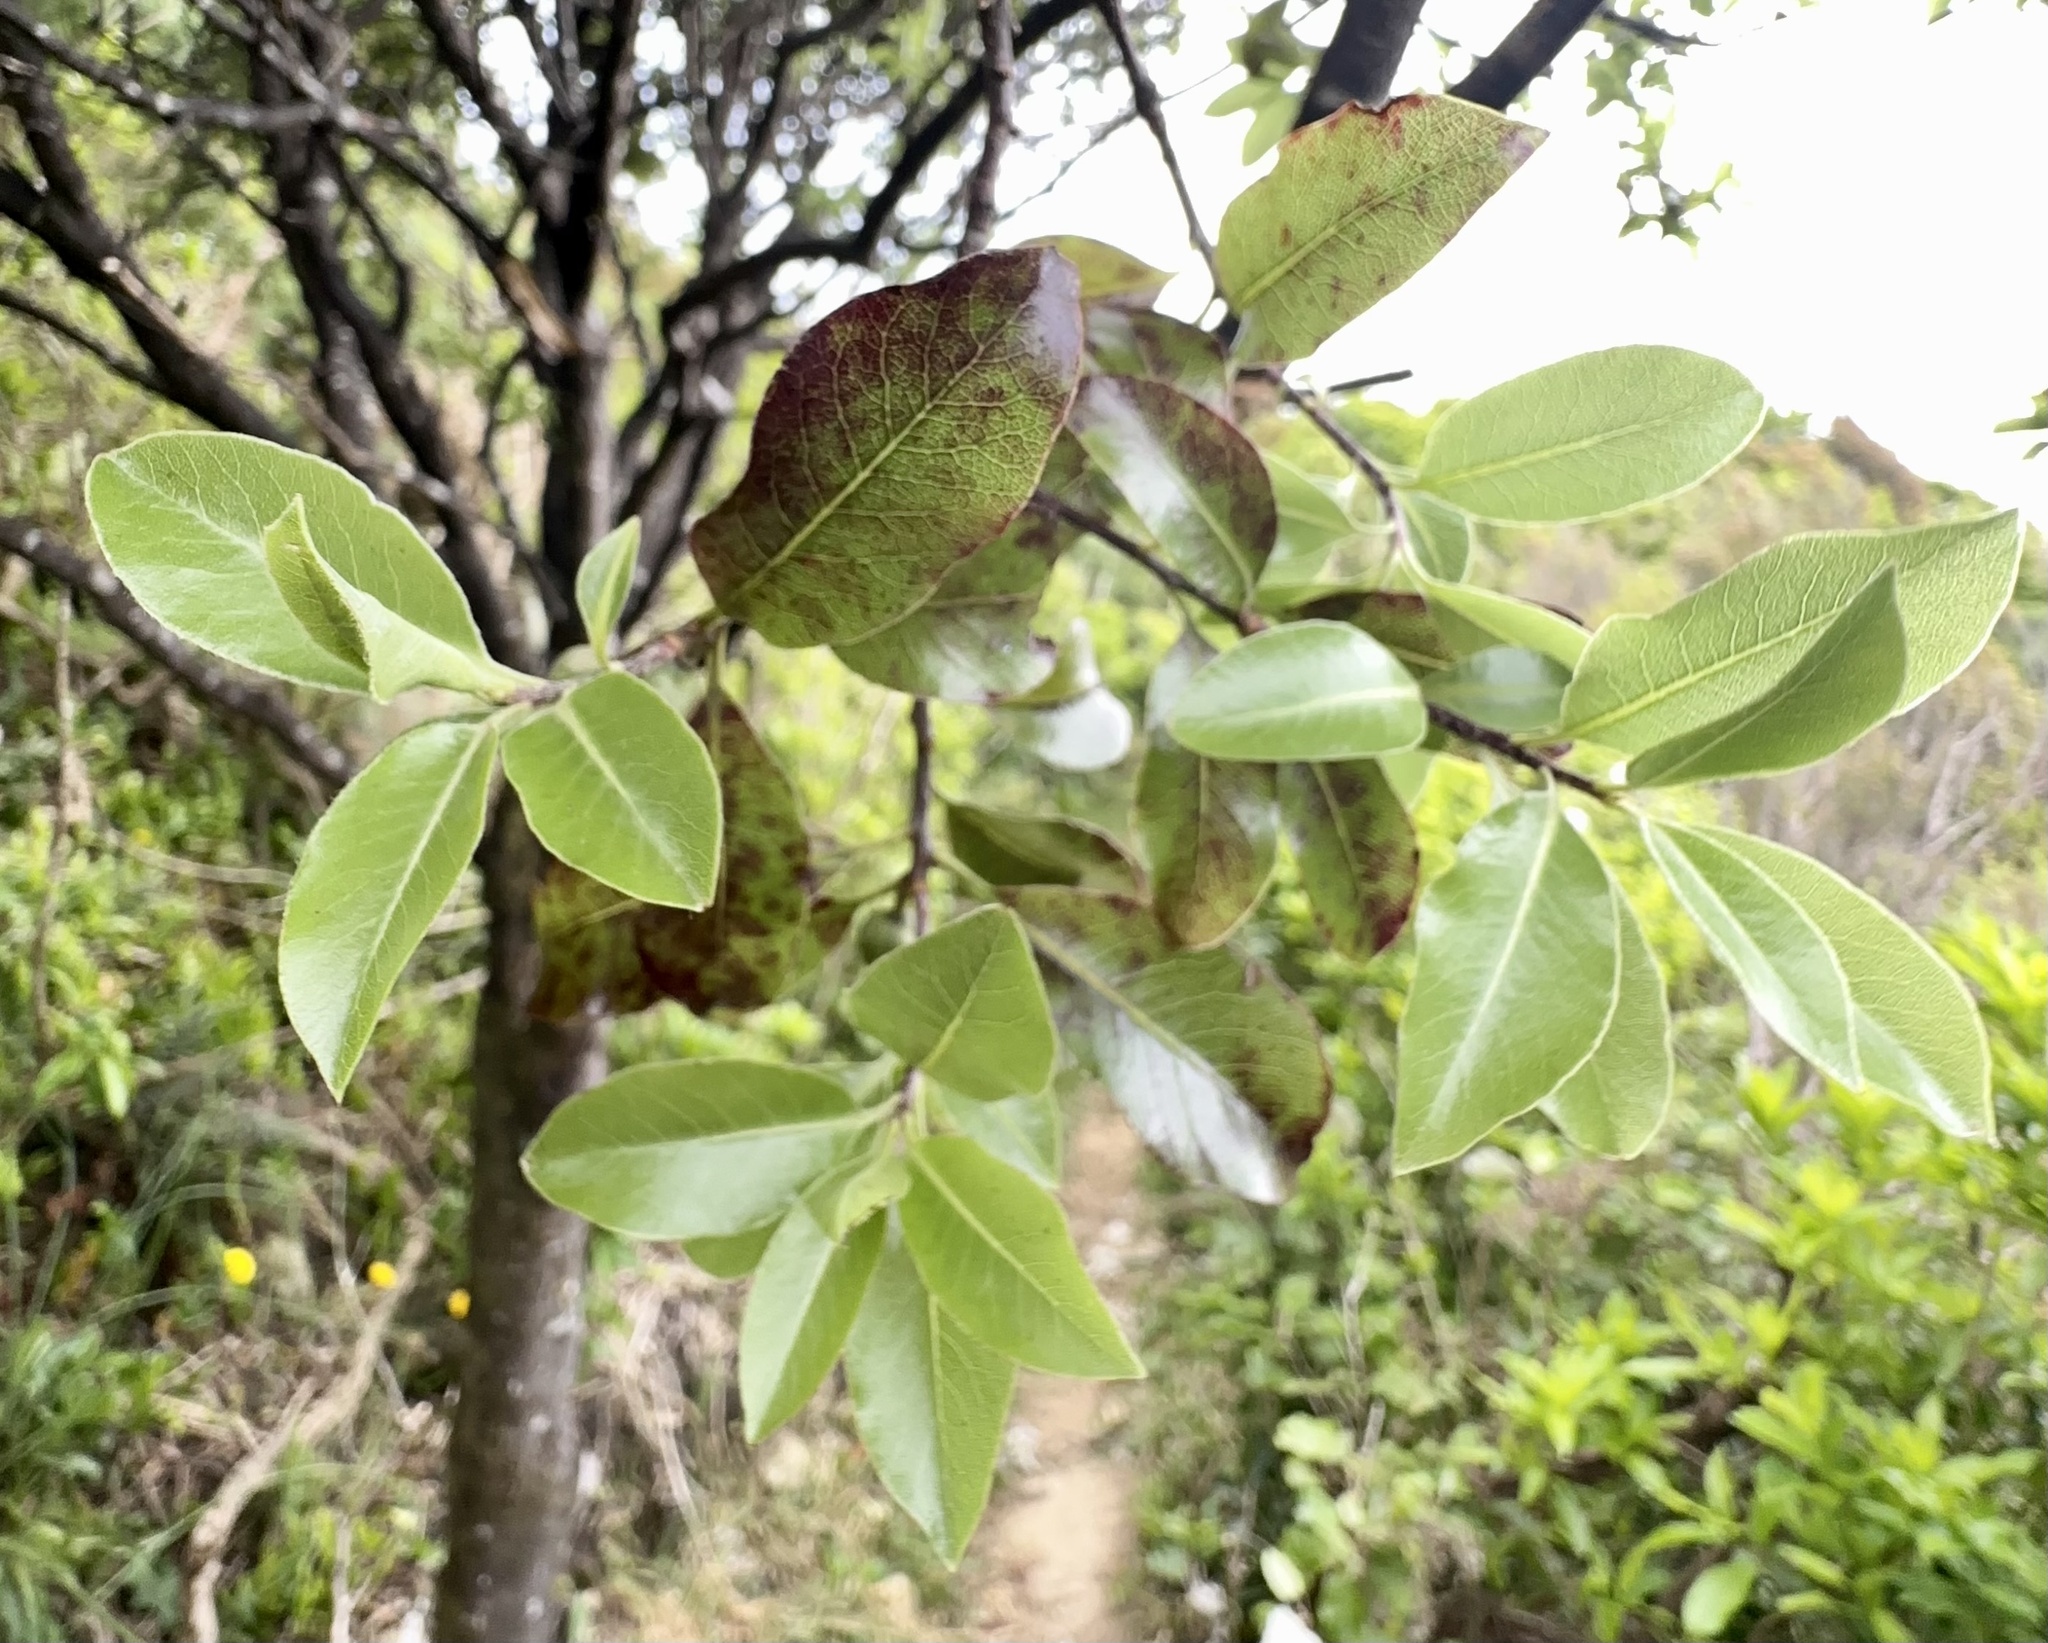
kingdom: Plantae
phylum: Tracheophyta
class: Magnoliopsida
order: Apiales
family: Pittosporaceae
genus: Pittosporum
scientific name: Pittosporum tenuifolium
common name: Kohuhu
